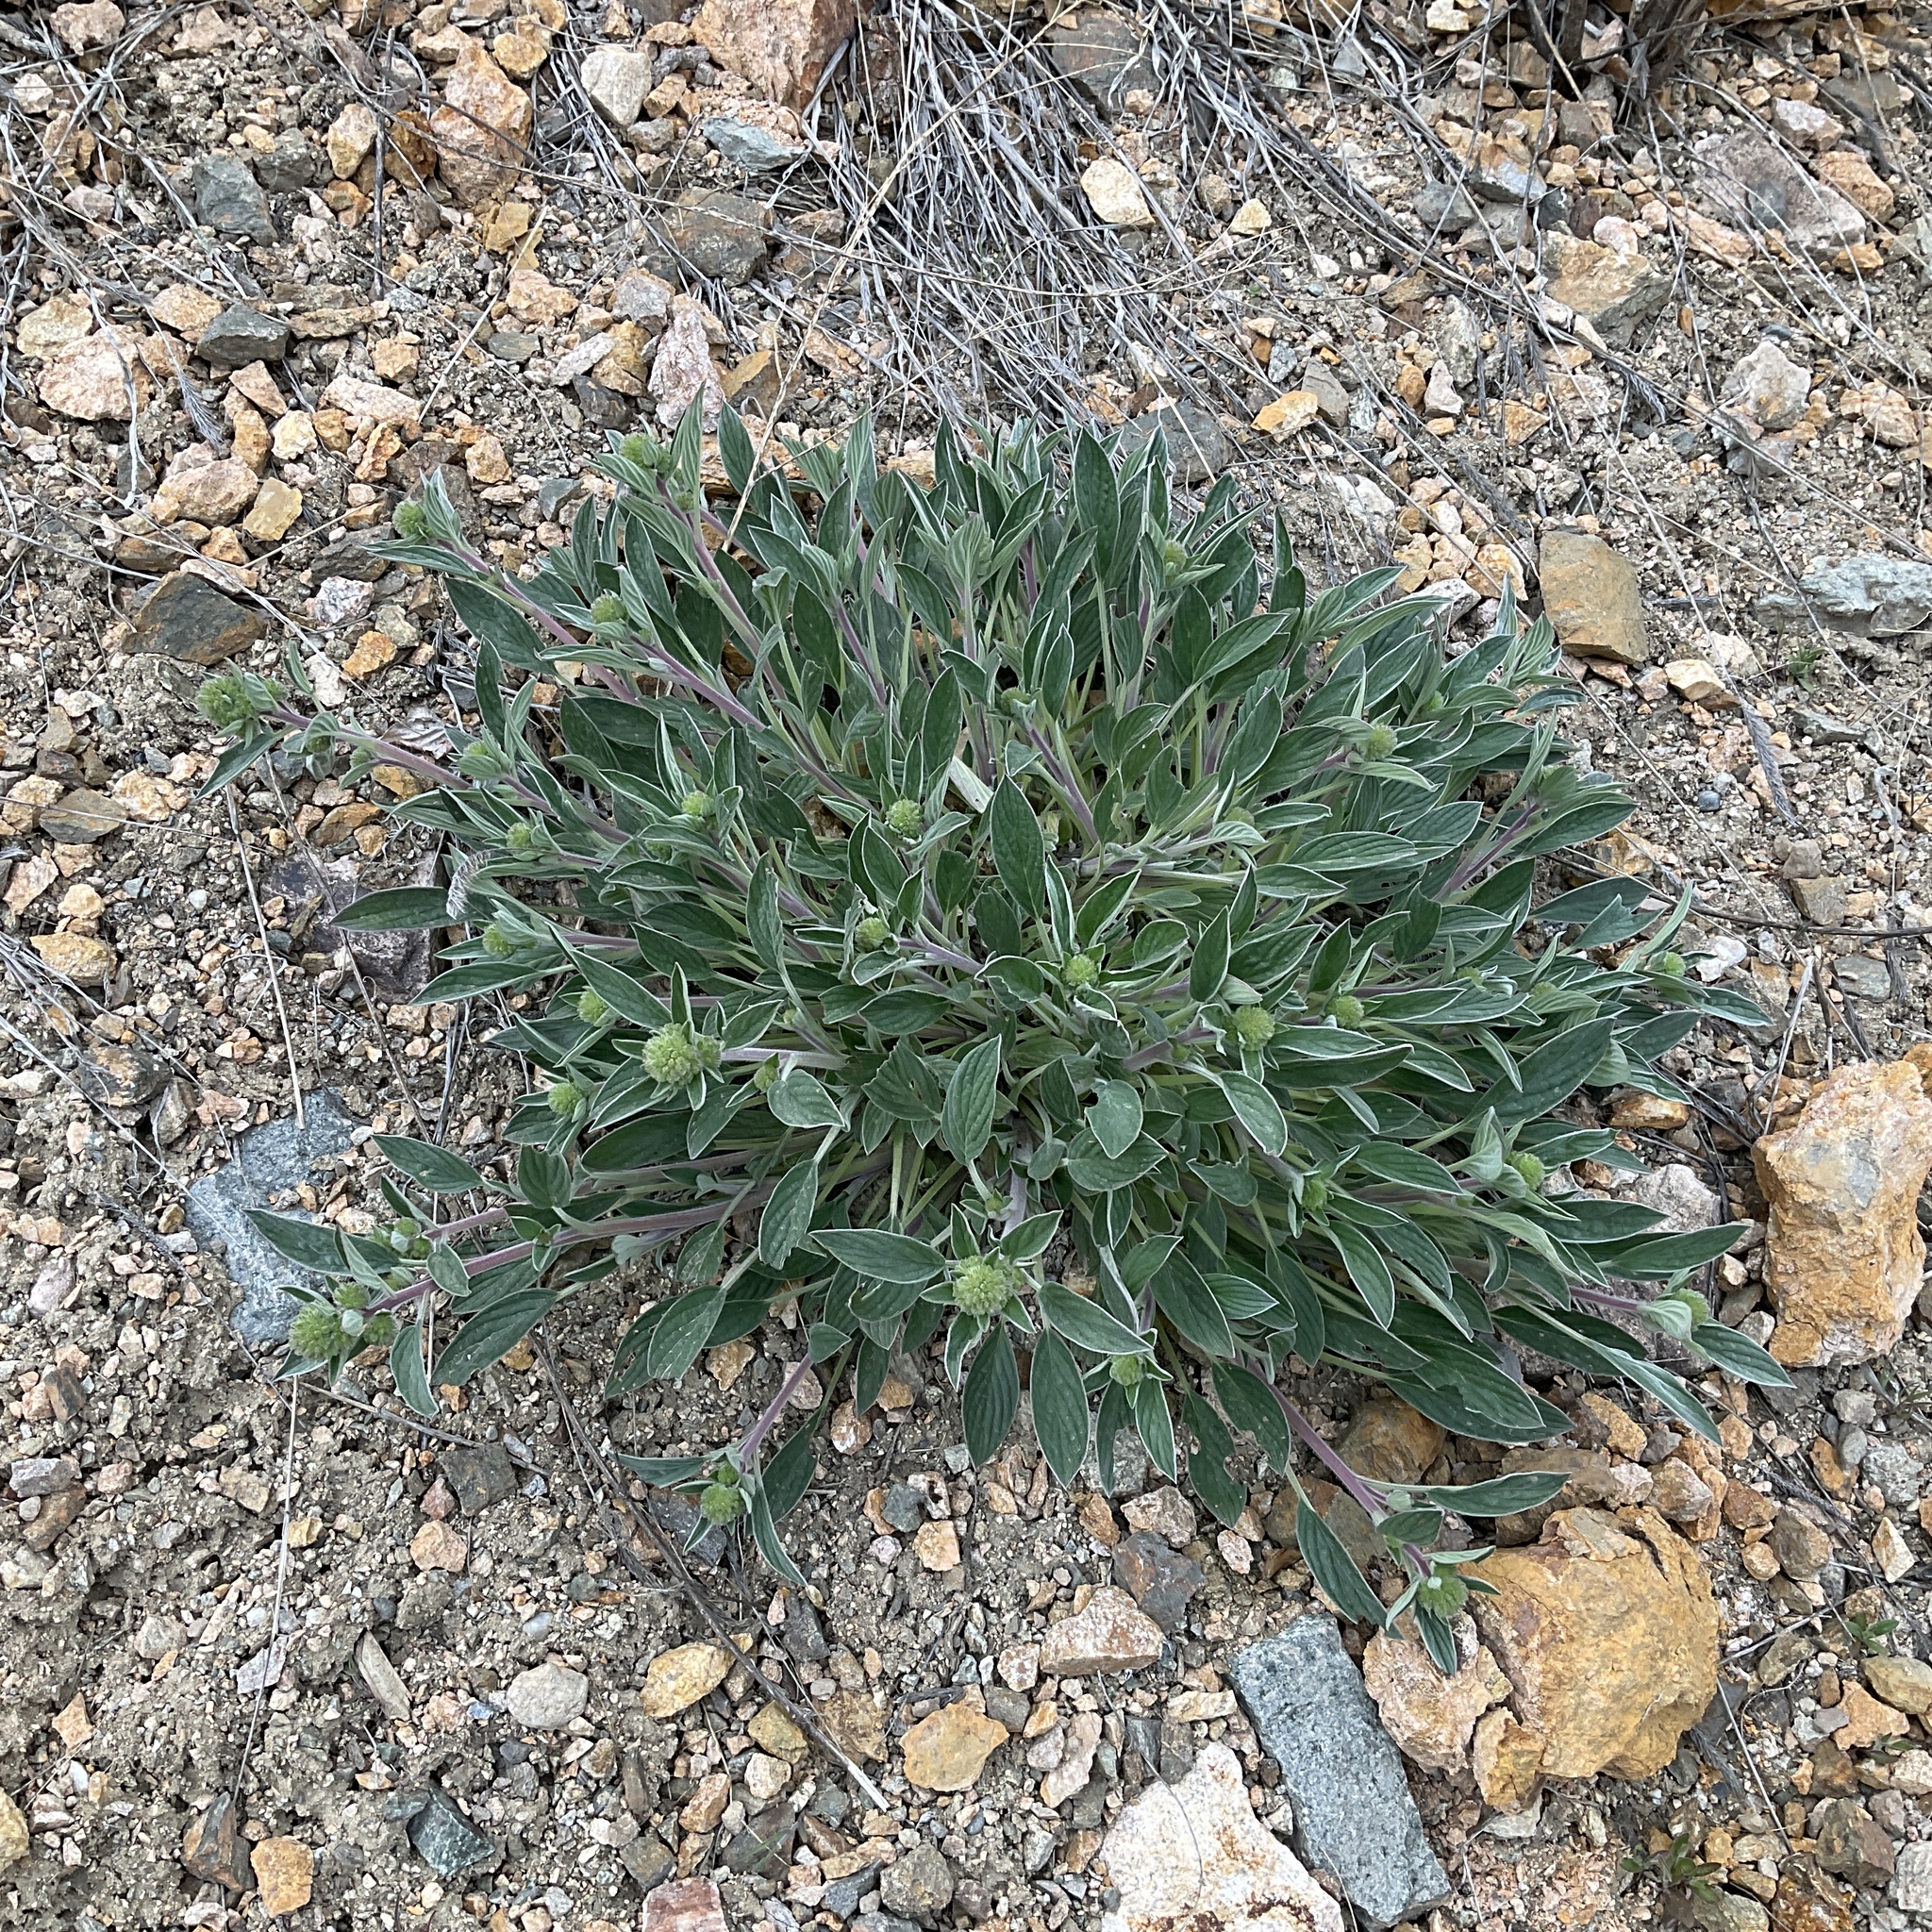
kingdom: Plantae
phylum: Tracheophyta
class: Magnoliopsida
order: Boraginales
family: Hydrophyllaceae
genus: Phacelia
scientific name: Phacelia hastata
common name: Silver-leaved phacelia
